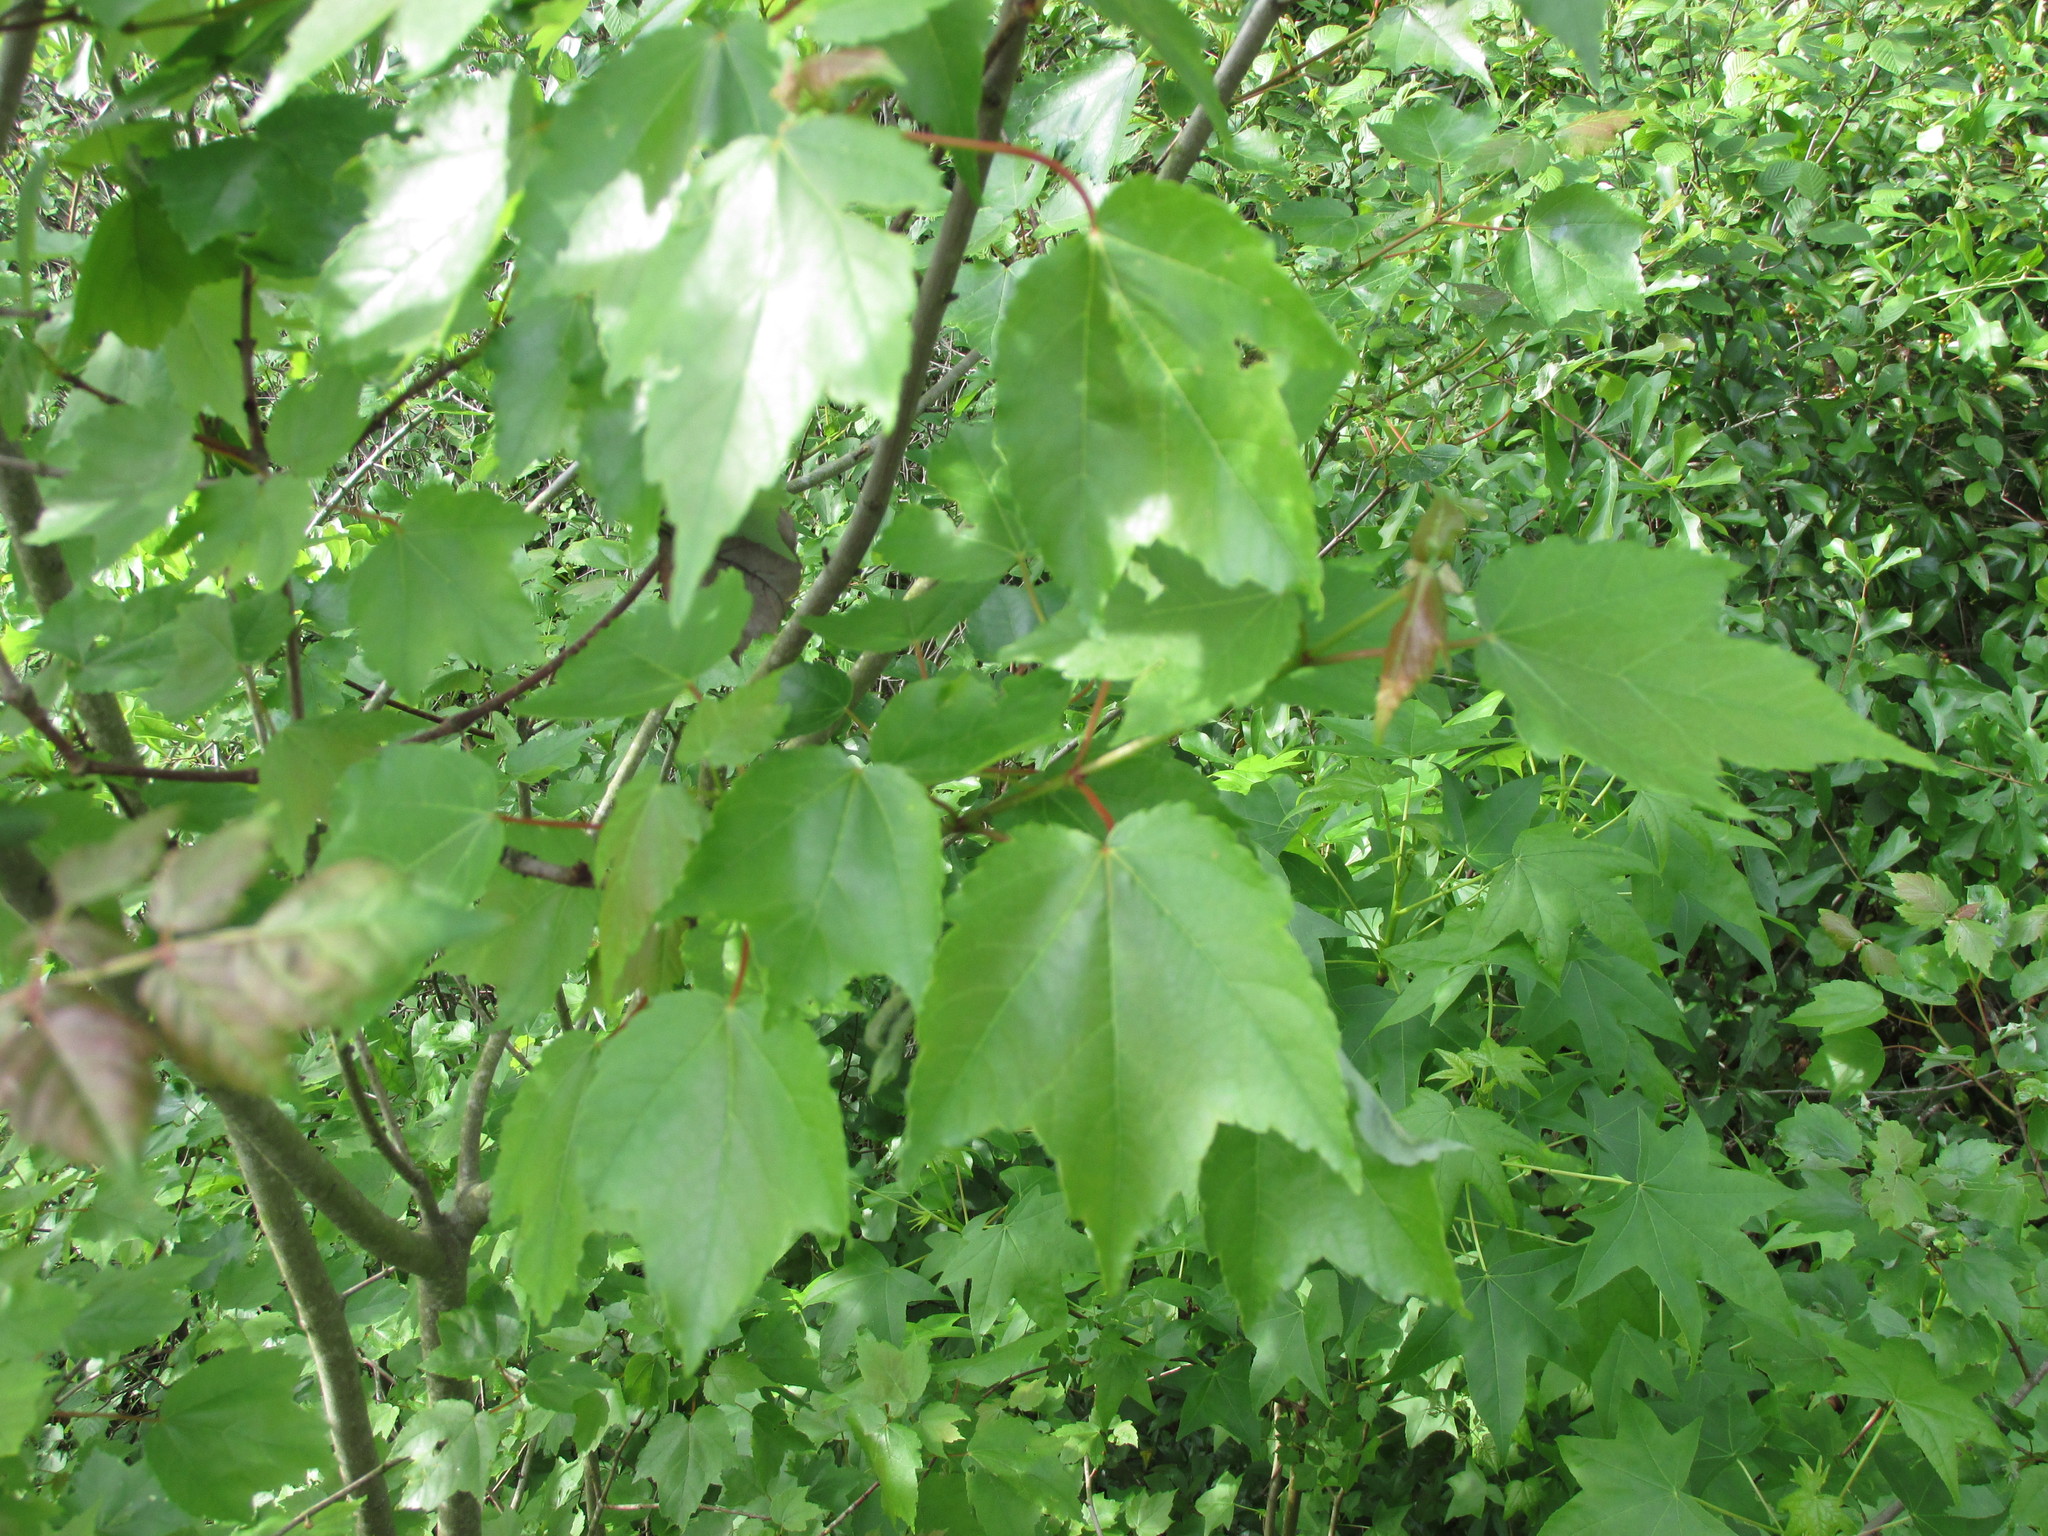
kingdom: Plantae
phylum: Tracheophyta
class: Magnoliopsida
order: Sapindales
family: Sapindaceae
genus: Acer
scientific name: Acer rubrum
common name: Red maple
